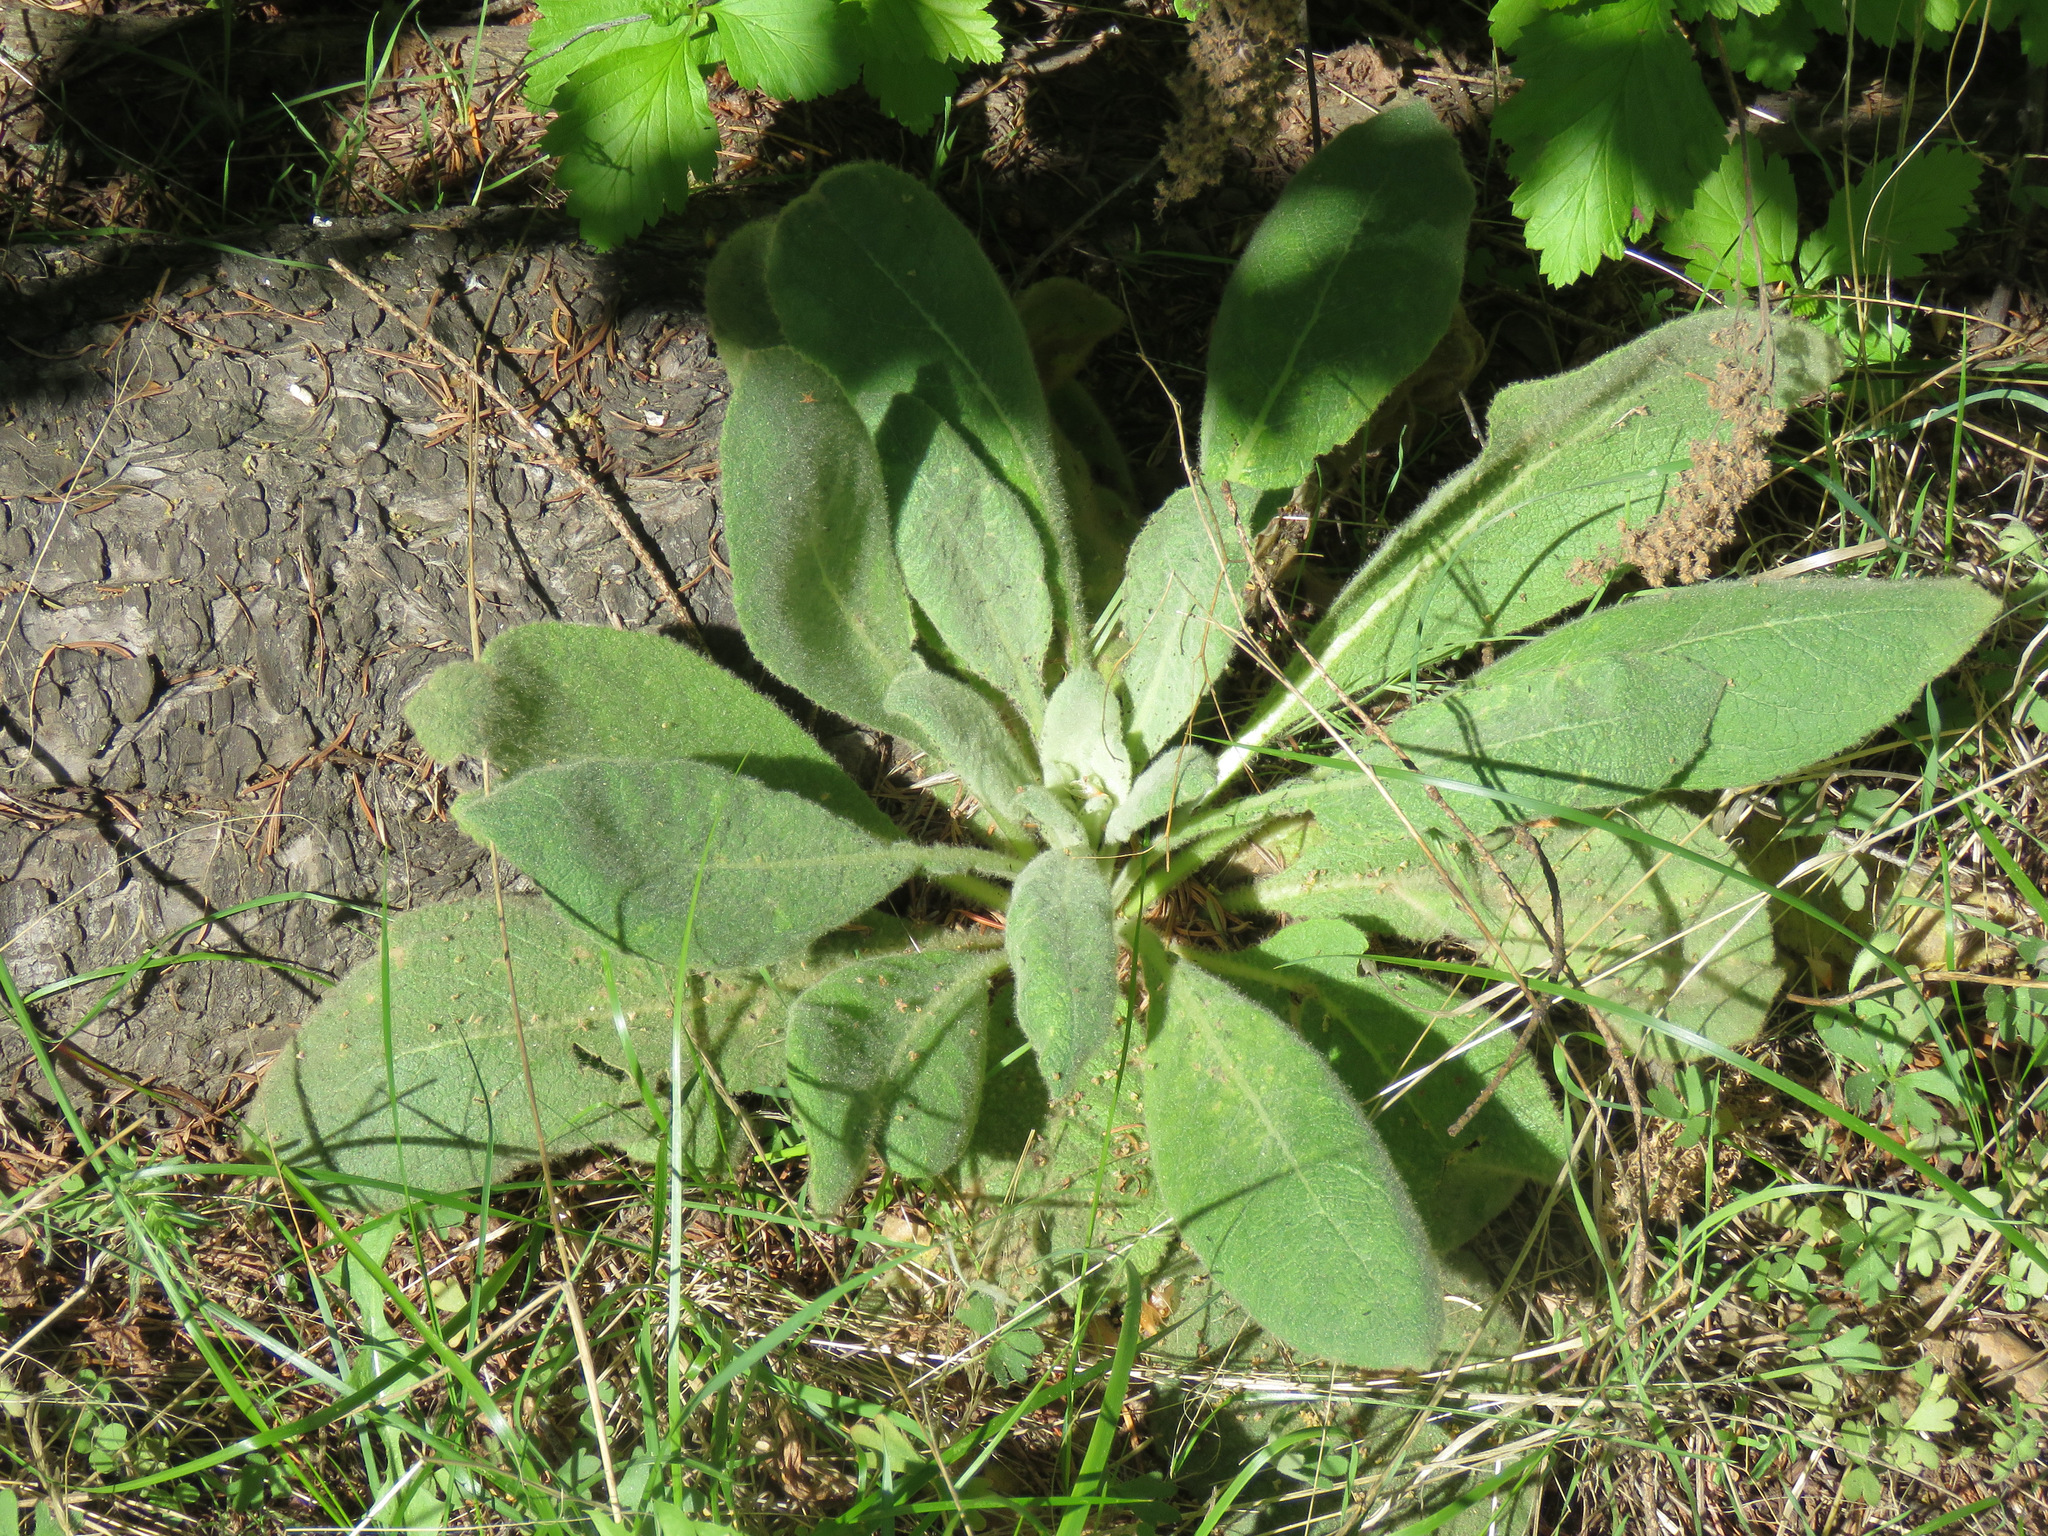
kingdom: Plantae
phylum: Tracheophyta
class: Magnoliopsida
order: Lamiales
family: Scrophulariaceae
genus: Verbascum
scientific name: Verbascum thapsus
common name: Common mullein
